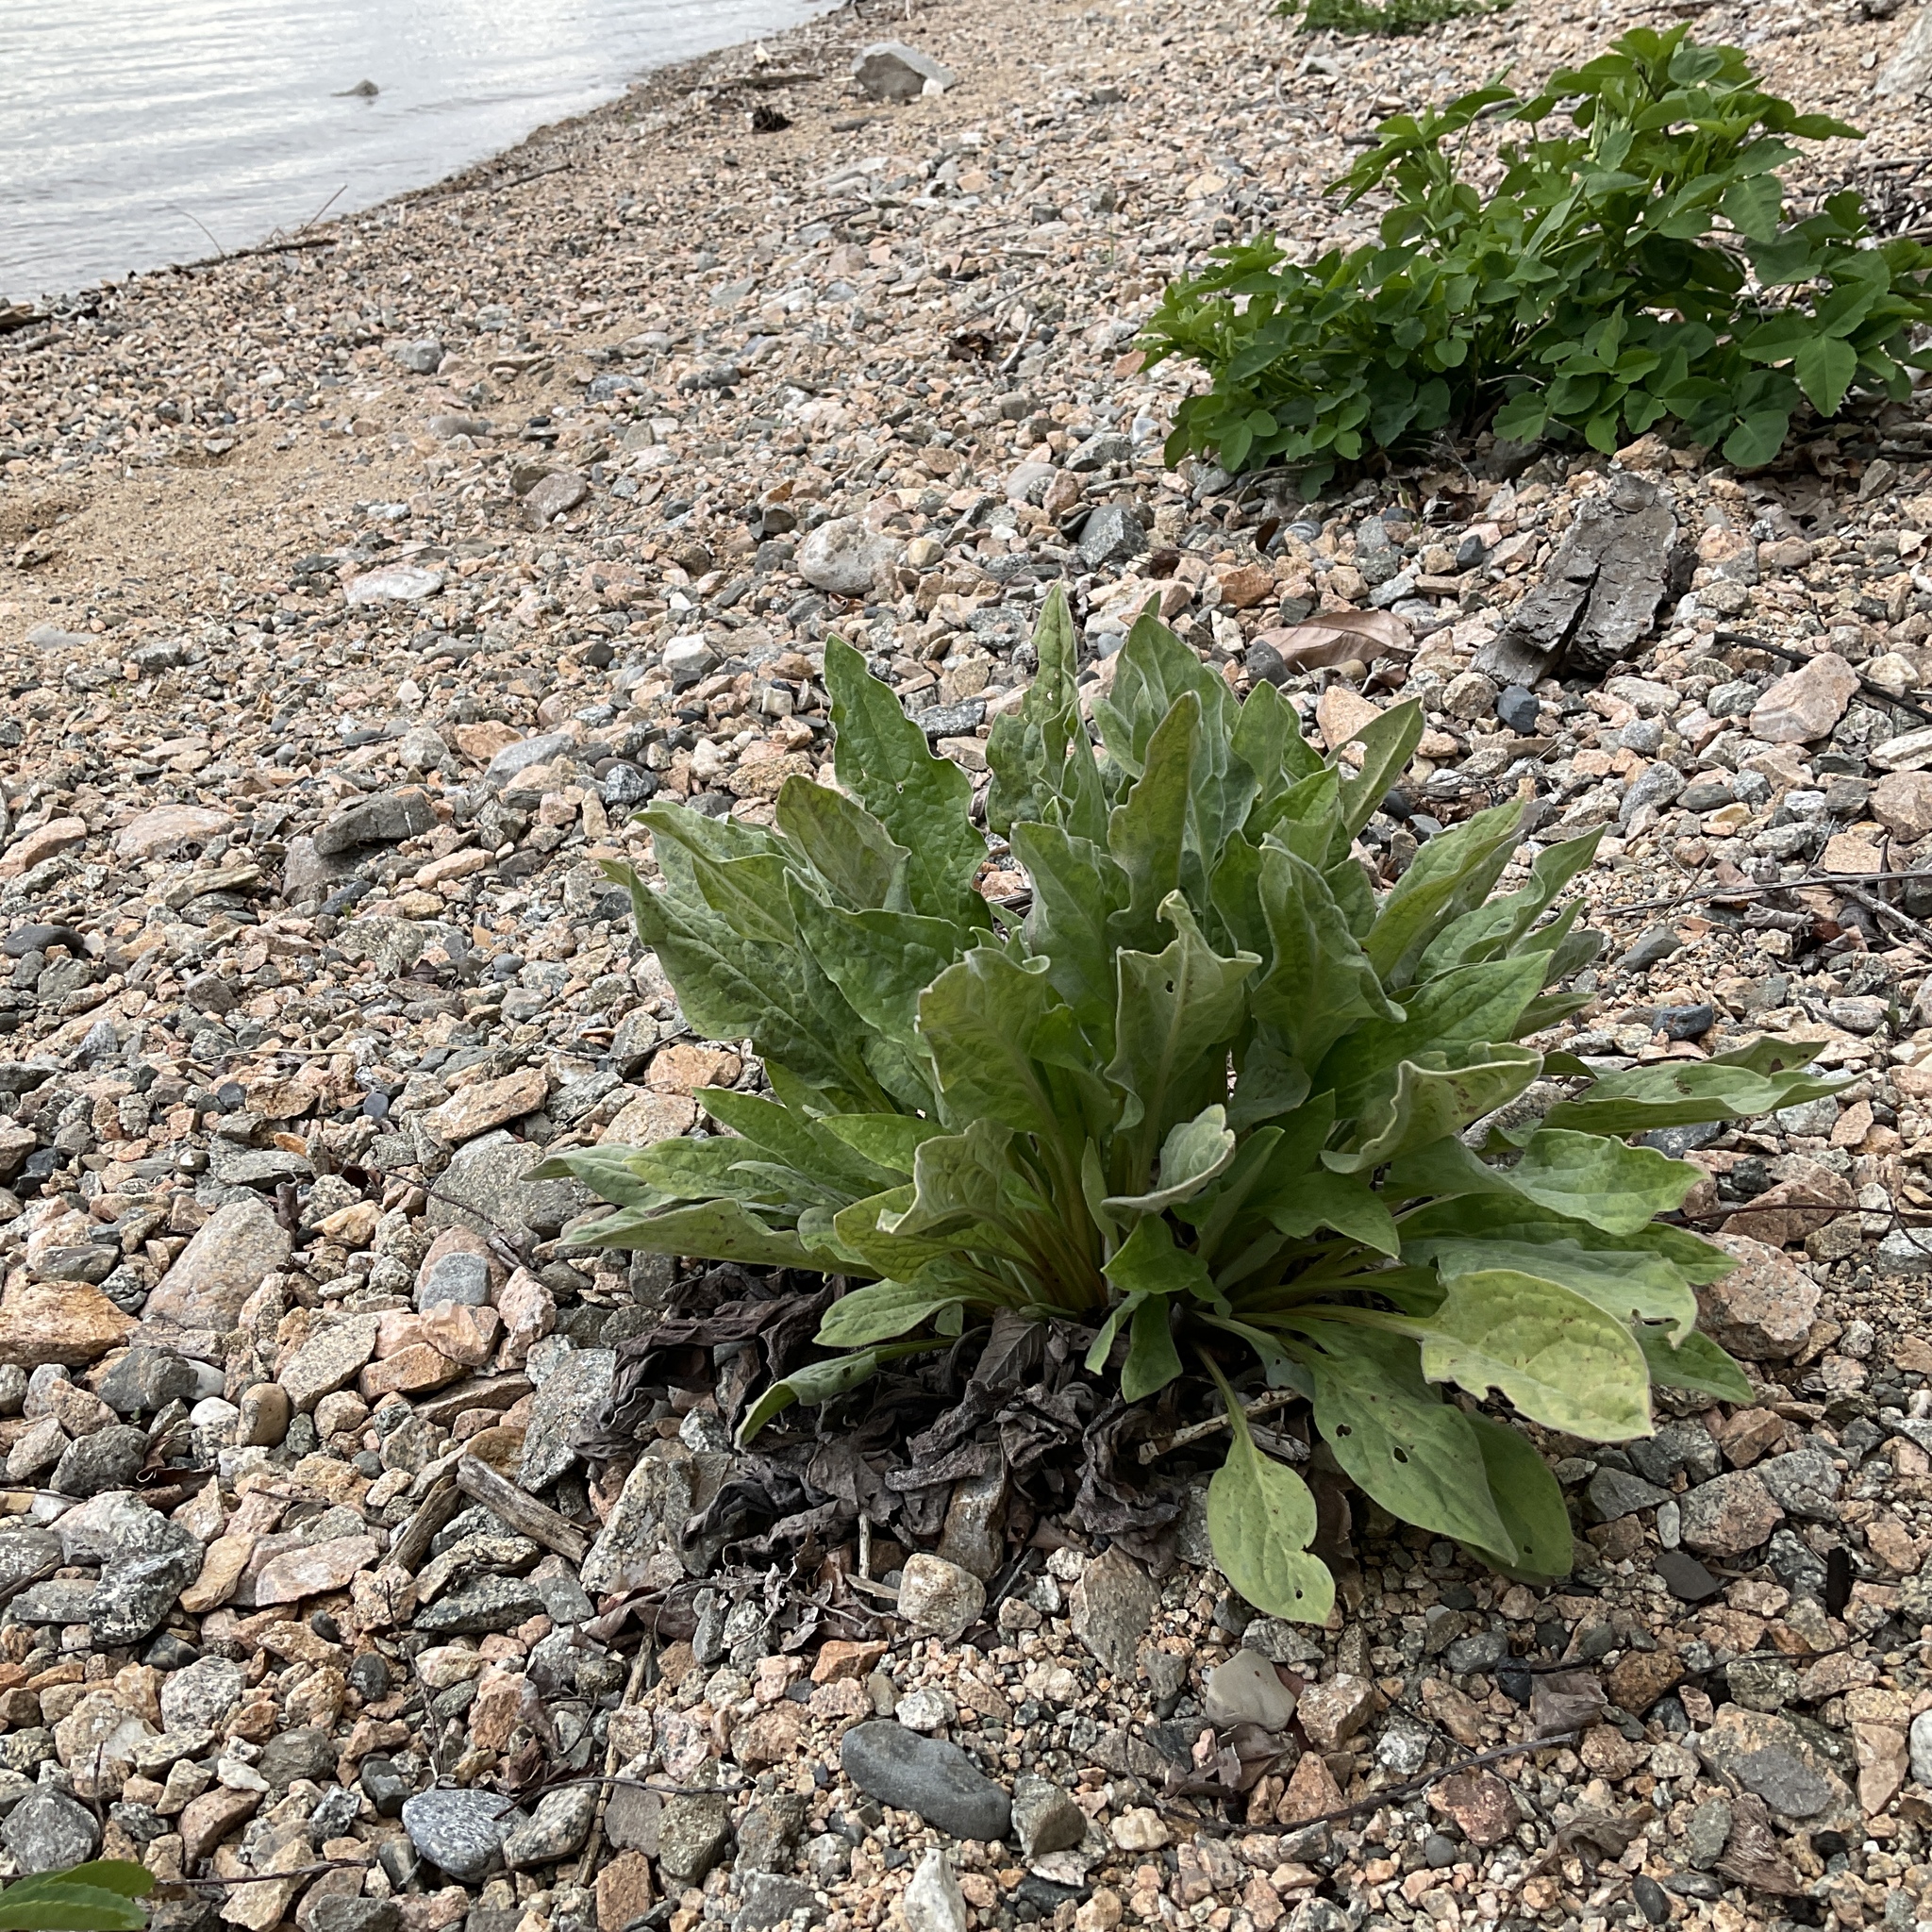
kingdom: Plantae
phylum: Tracheophyta
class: Magnoliopsida
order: Boraginales
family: Boraginaceae
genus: Cynoglossum
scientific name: Cynoglossum officinale
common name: Hound's-tongue
